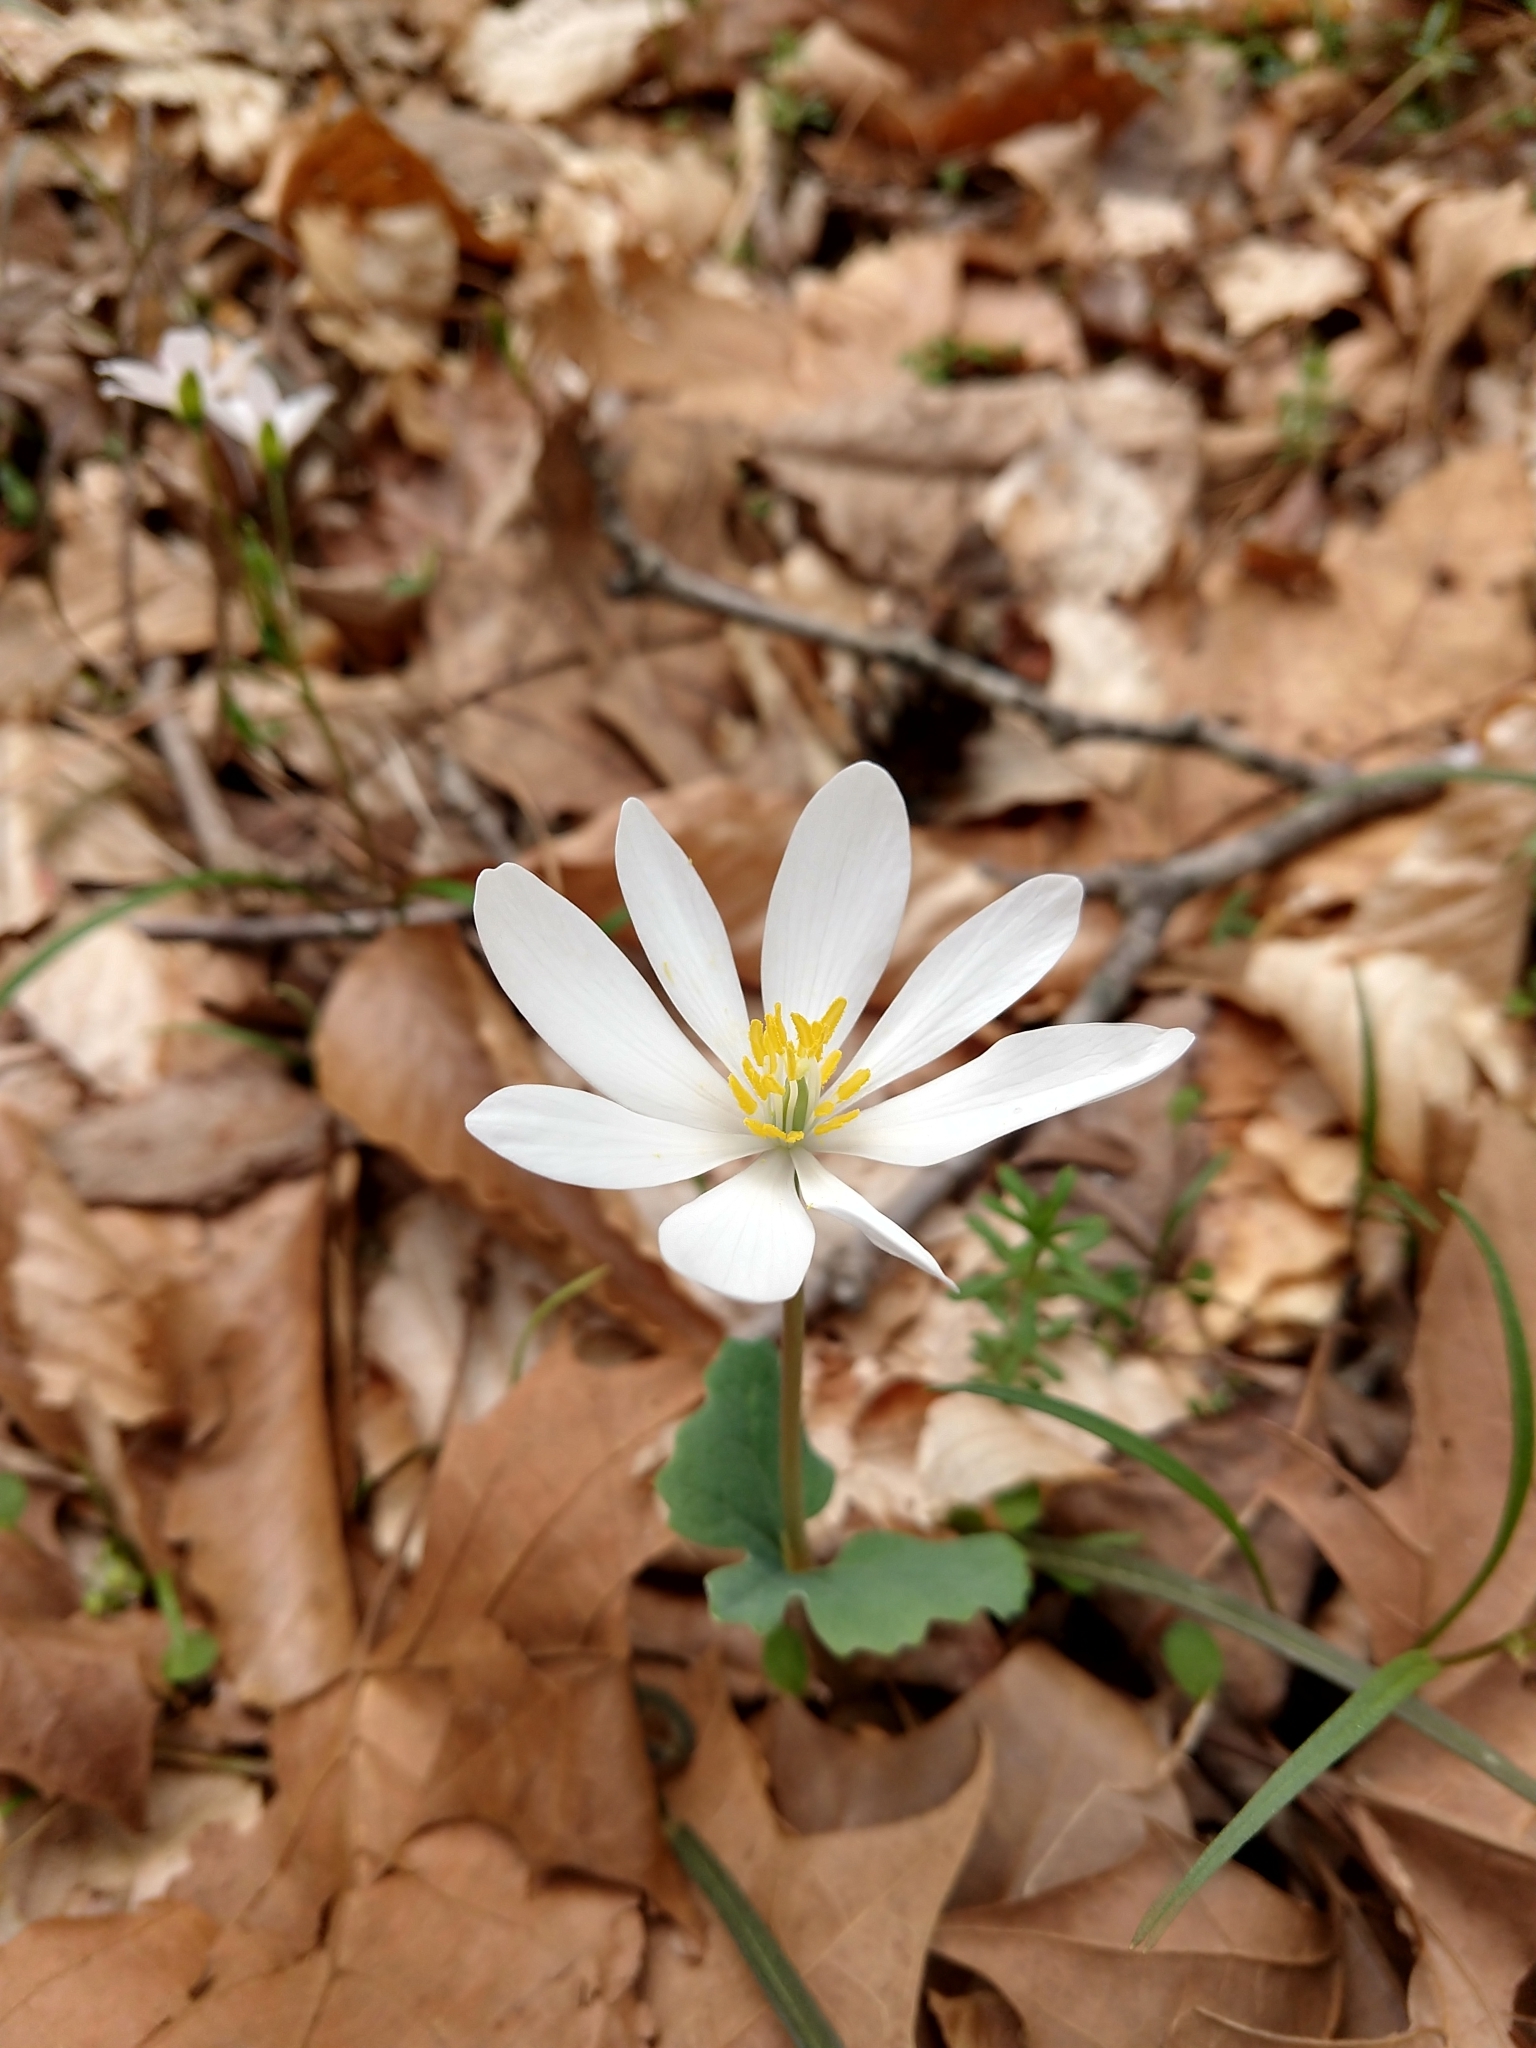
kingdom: Plantae
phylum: Tracheophyta
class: Magnoliopsida
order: Ranunculales
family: Papaveraceae
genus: Sanguinaria
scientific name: Sanguinaria canadensis
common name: Bloodroot
